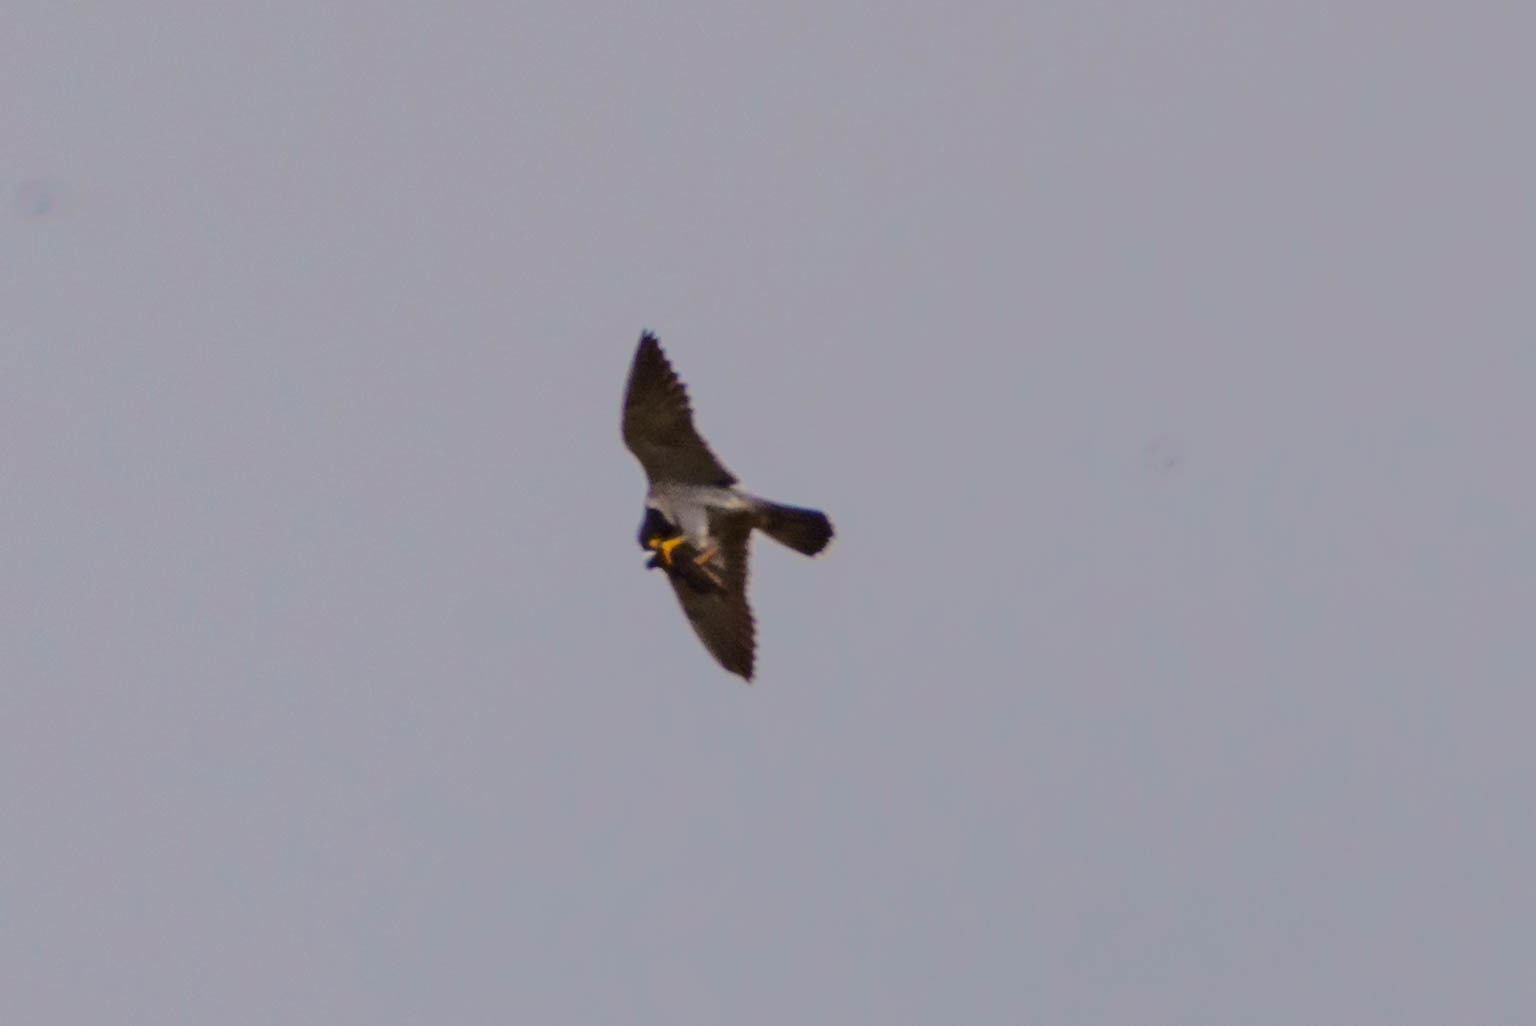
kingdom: Animalia
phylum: Chordata
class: Aves
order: Falconiformes
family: Falconidae
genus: Falco
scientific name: Falco peregrinus
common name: Peregrine falcon
